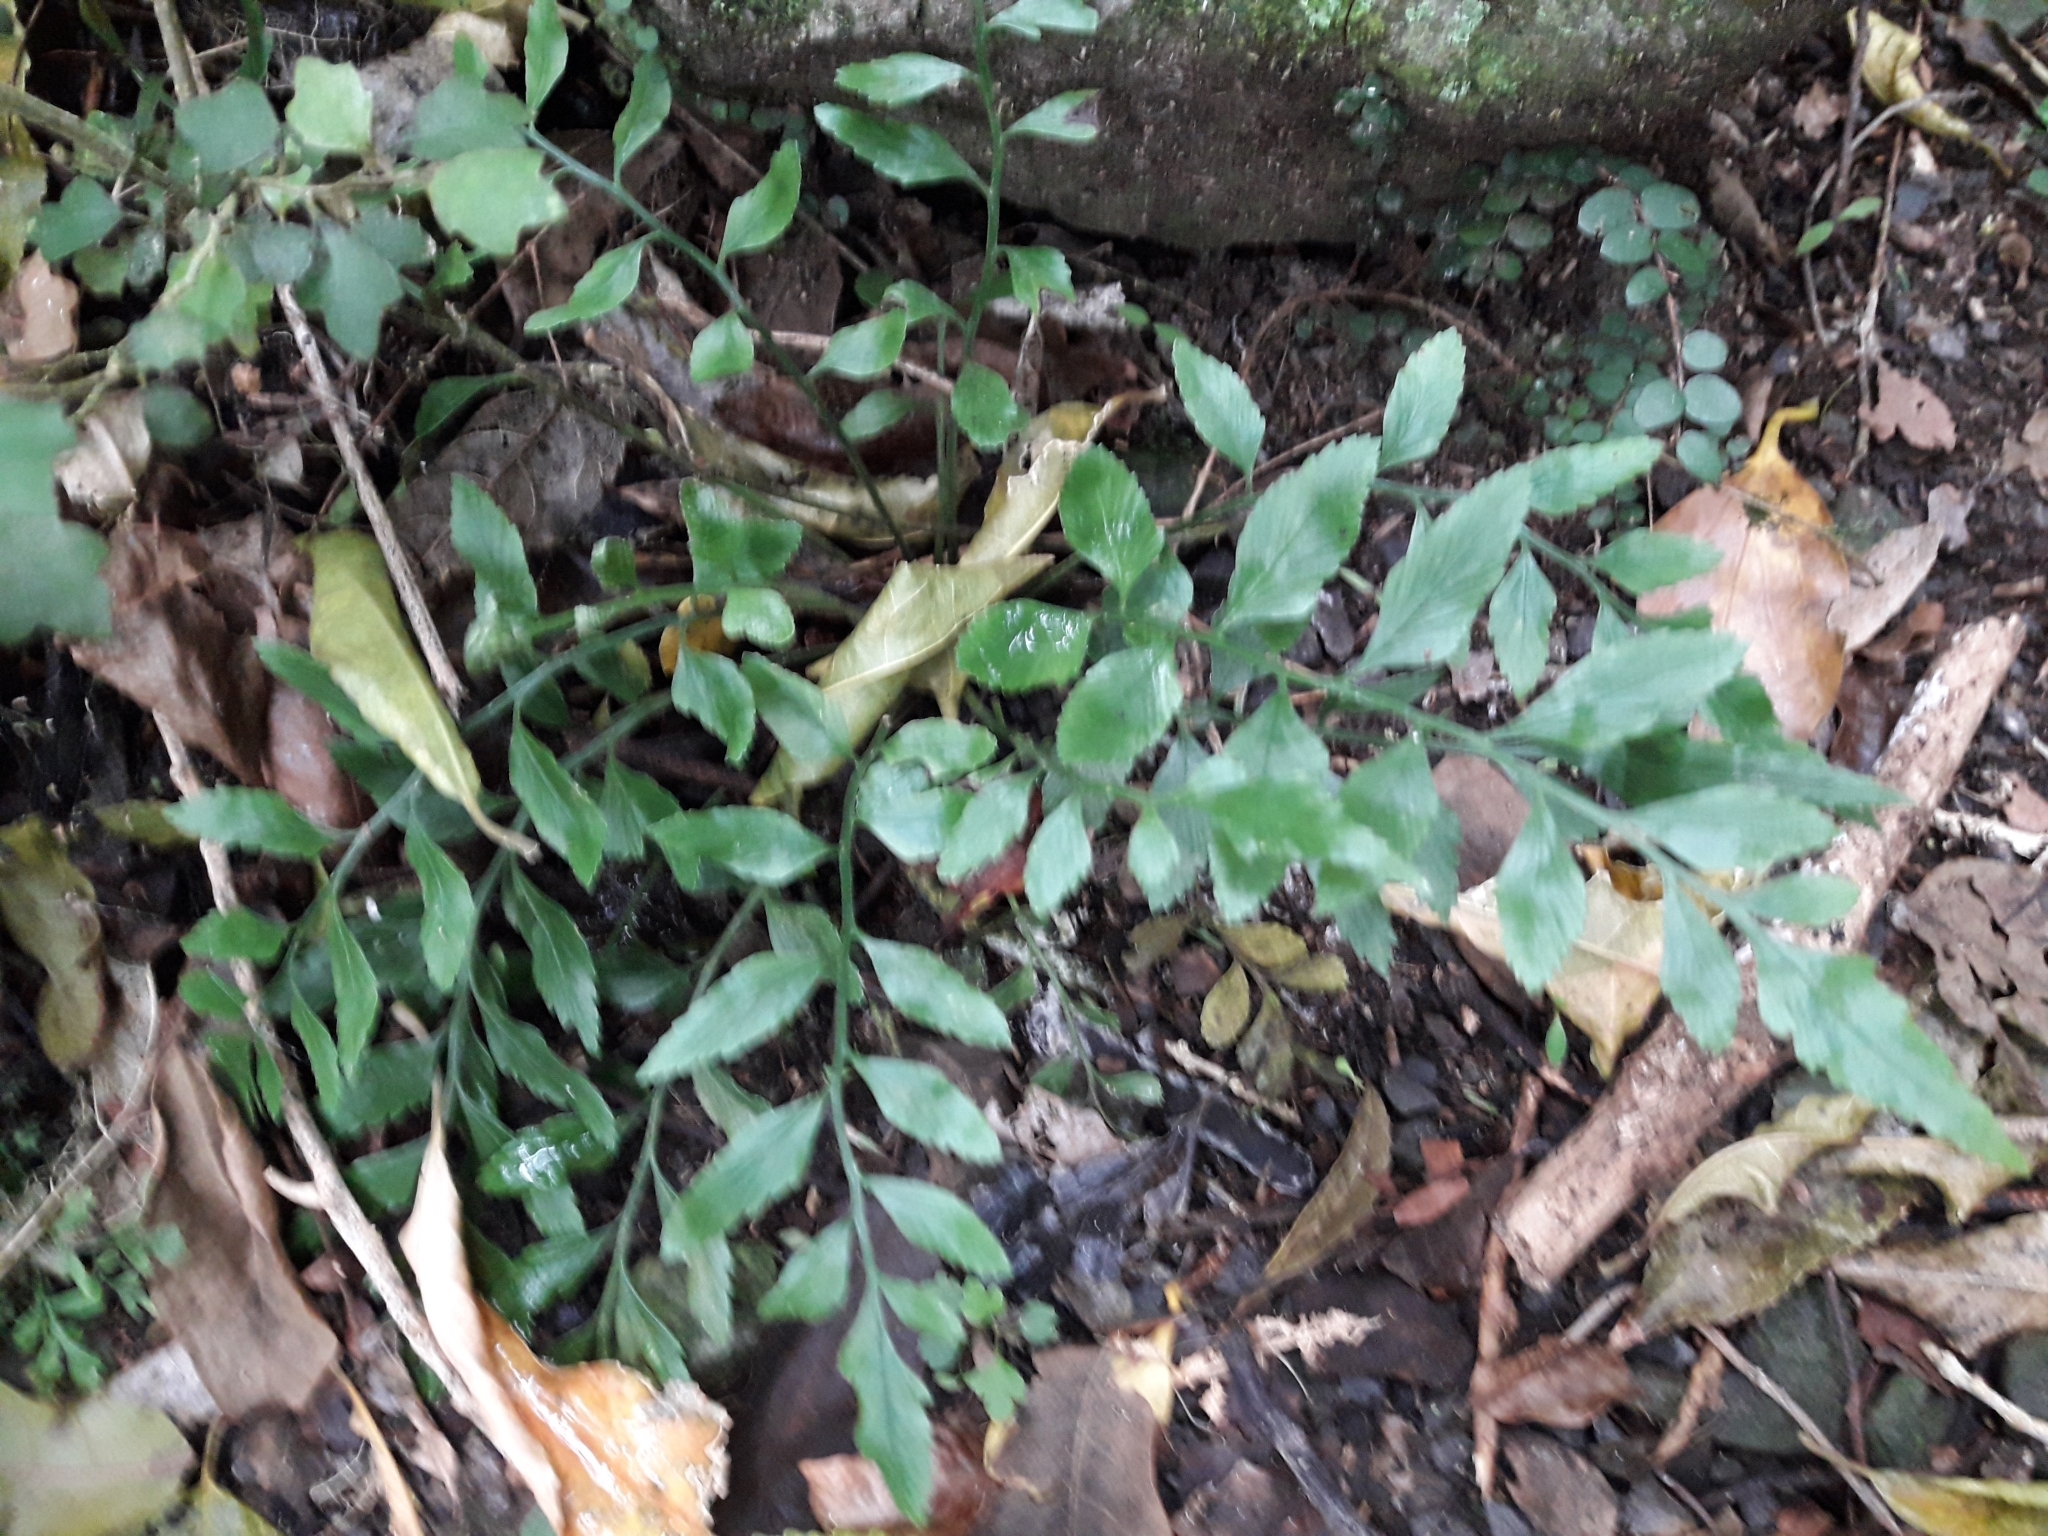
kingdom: Plantae
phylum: Tracheophyta
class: Polypodiopsida
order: Polypodiales
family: Aspleniaceae
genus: Asplenium
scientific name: Asplenium lyallii
